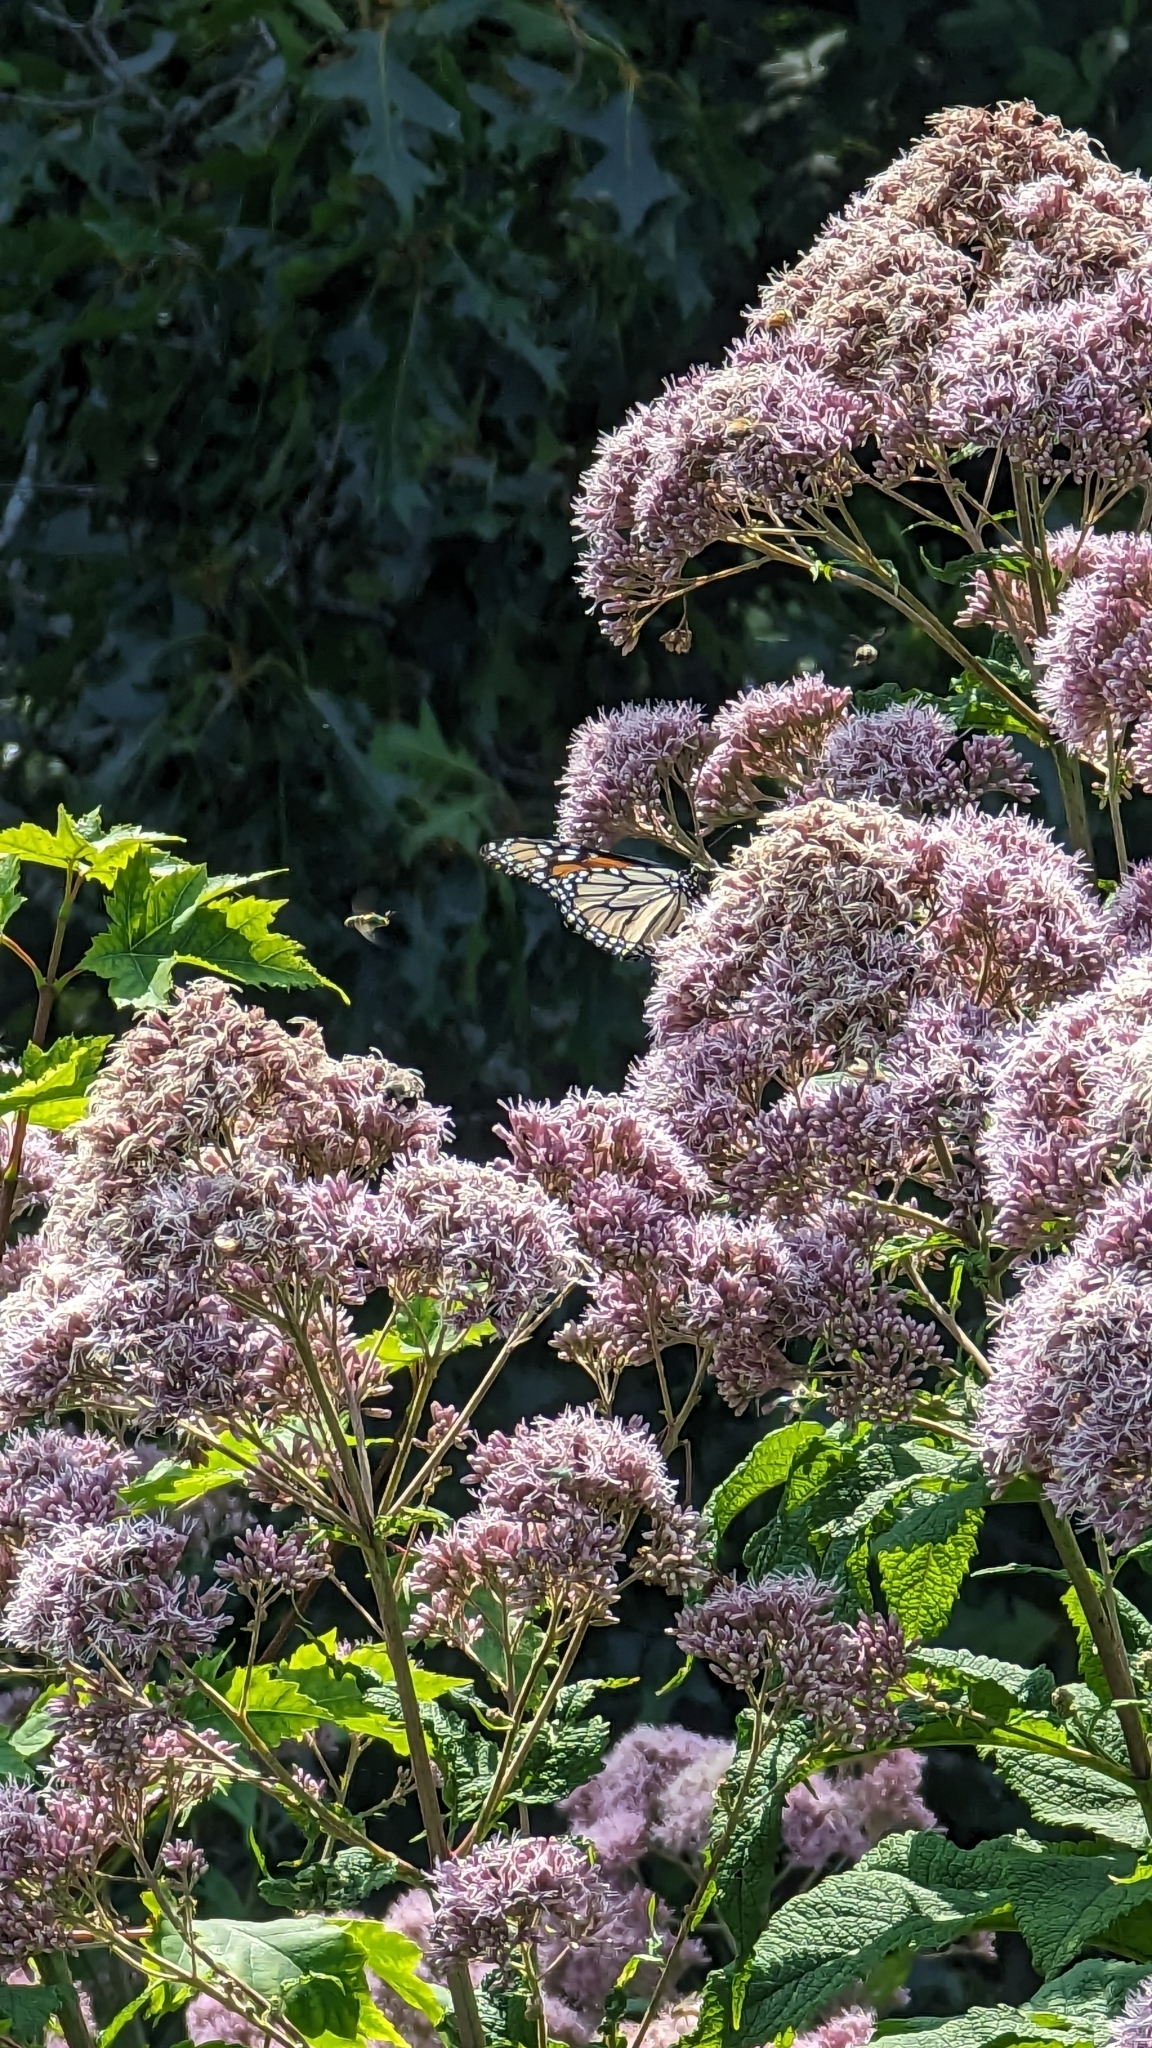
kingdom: Animalia
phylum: Arthropoda
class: Insecta
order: Lepidoptera
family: Nymphalidae
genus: Danaus
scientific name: Danaus plexippus
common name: Monarch
